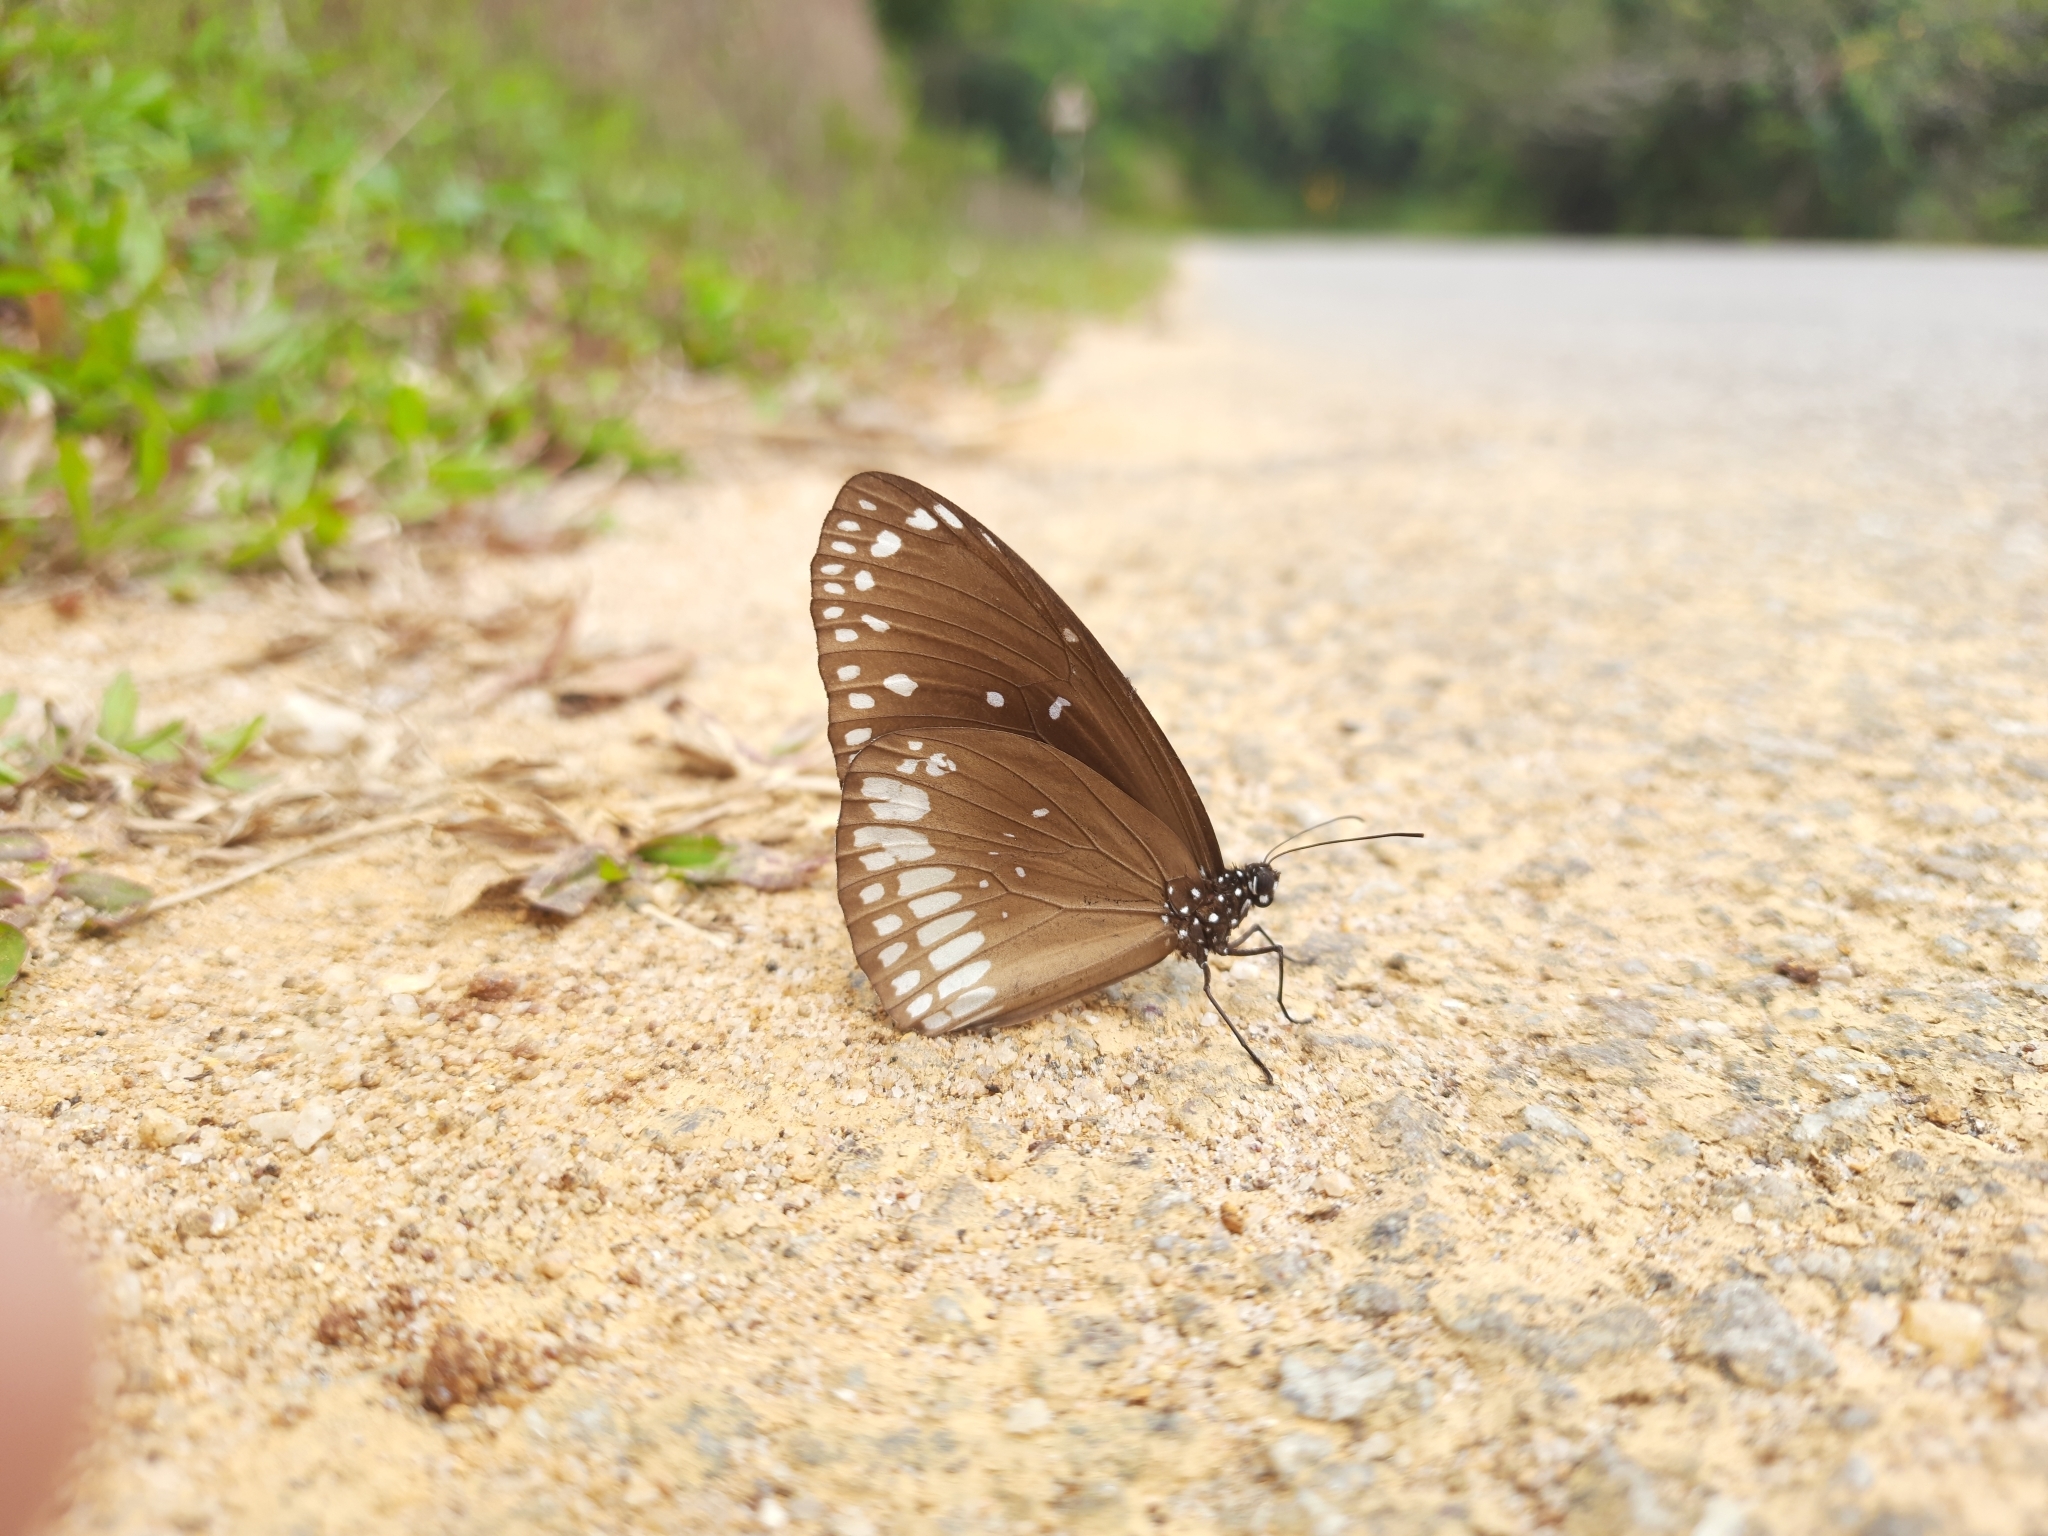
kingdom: Animalia
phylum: Arthropoda
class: Insecta
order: Lepidoptera
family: Nymphalidae
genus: Euploea
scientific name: Euploea core
